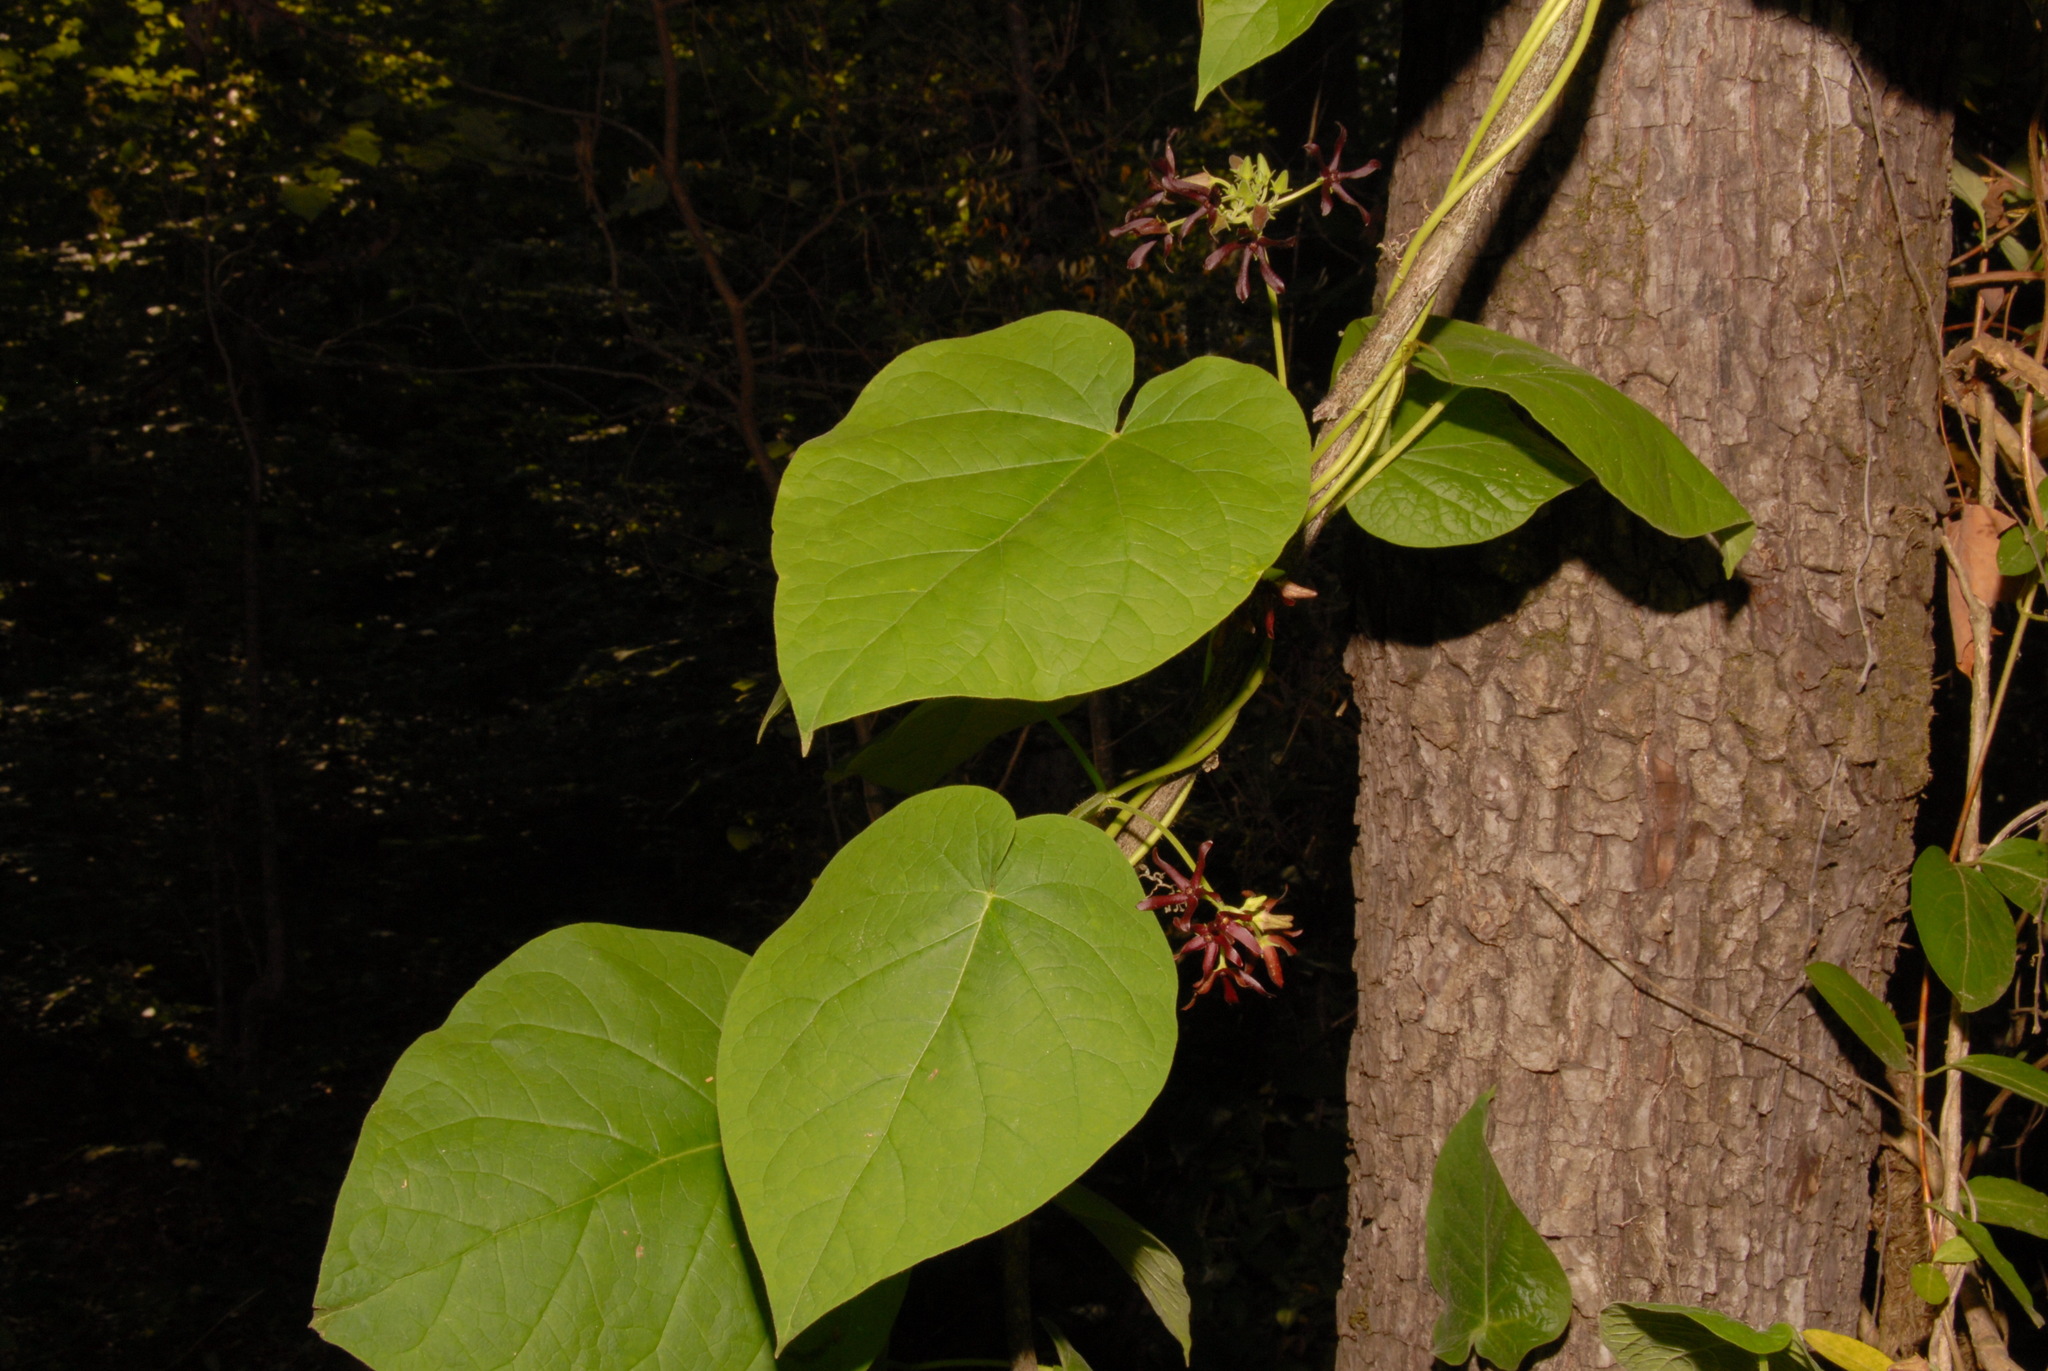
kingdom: Plantae
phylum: Tracheophyta
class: Magnoliopsida
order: Gentianales
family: Apocynaceae
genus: Matelea
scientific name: Matelea obliqua
